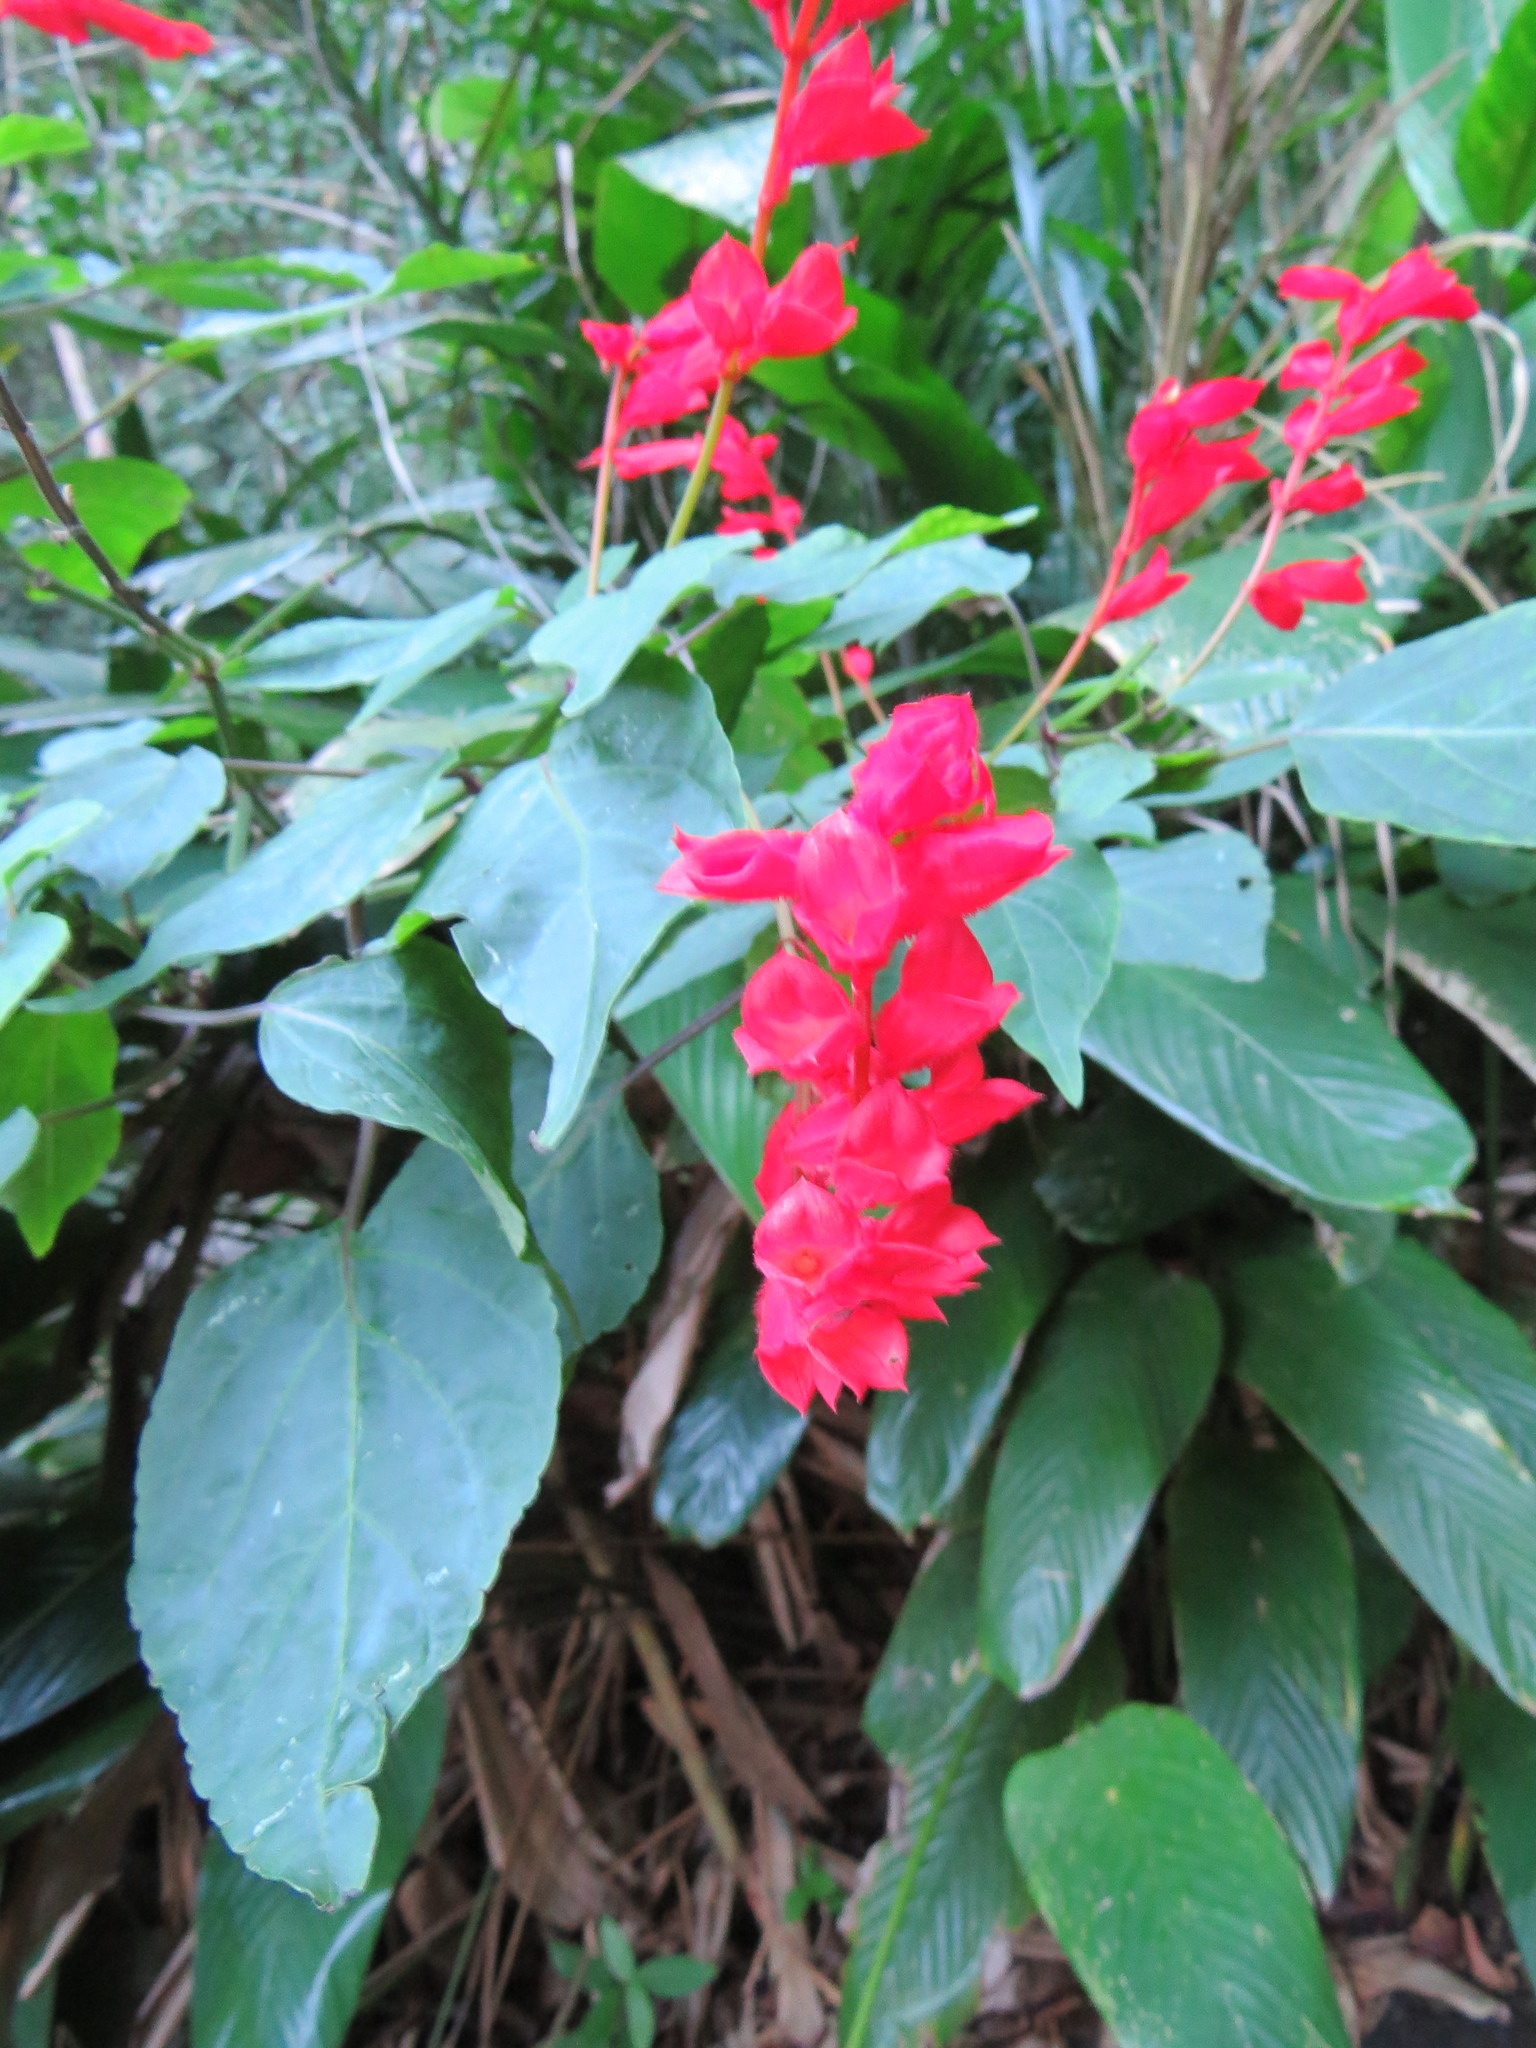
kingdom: Plantae
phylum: Tracheophyta
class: Magnoliopsida
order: Lamiales
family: Lamiaceae
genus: Salvia
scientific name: Salvia splendens
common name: Scarlet sage
